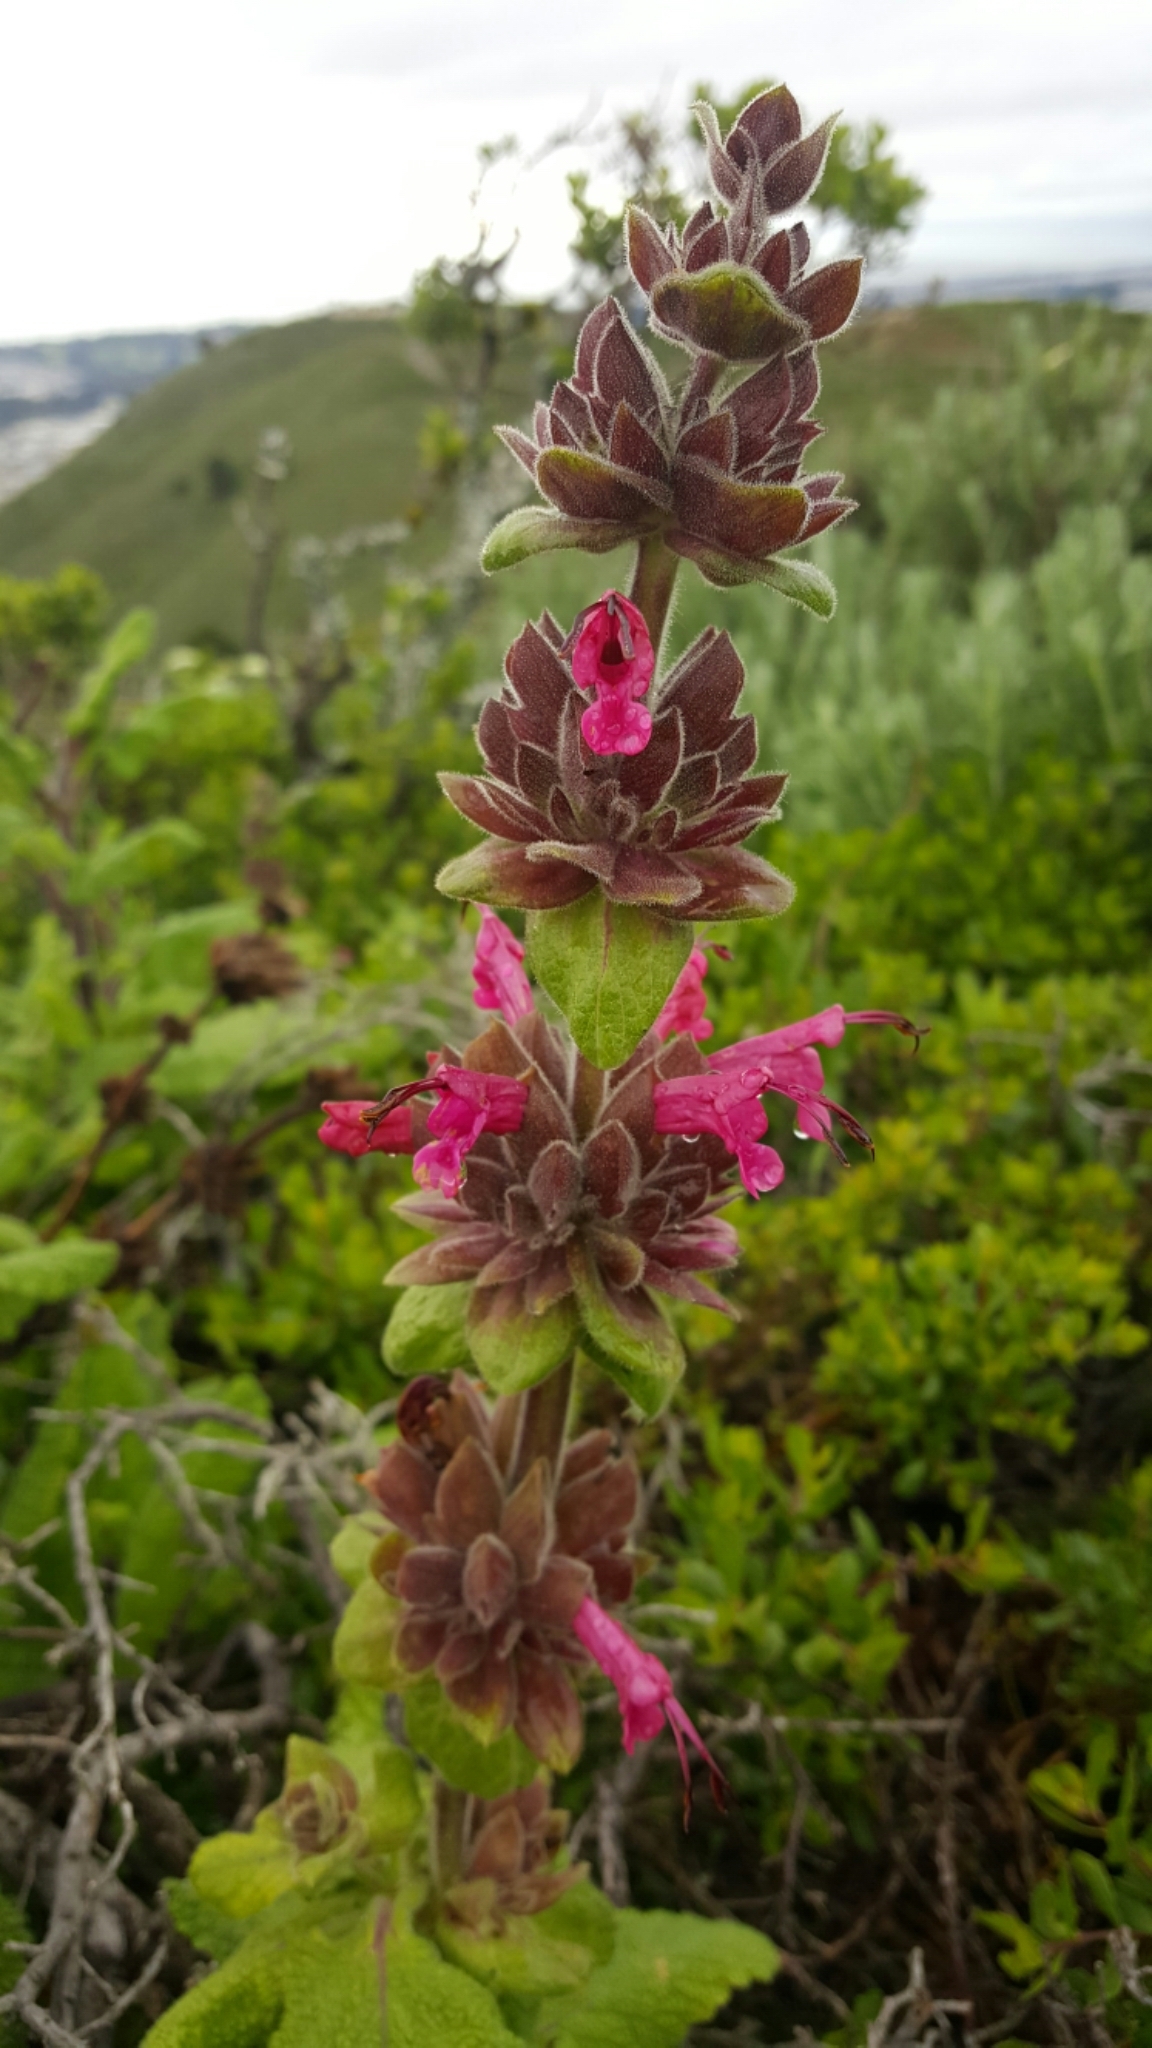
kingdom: Plantae
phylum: Tracheophyta
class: Magnoliopsida
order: Lamiales
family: Lamiaceae
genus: Salvia
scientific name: Salvia spathacea
